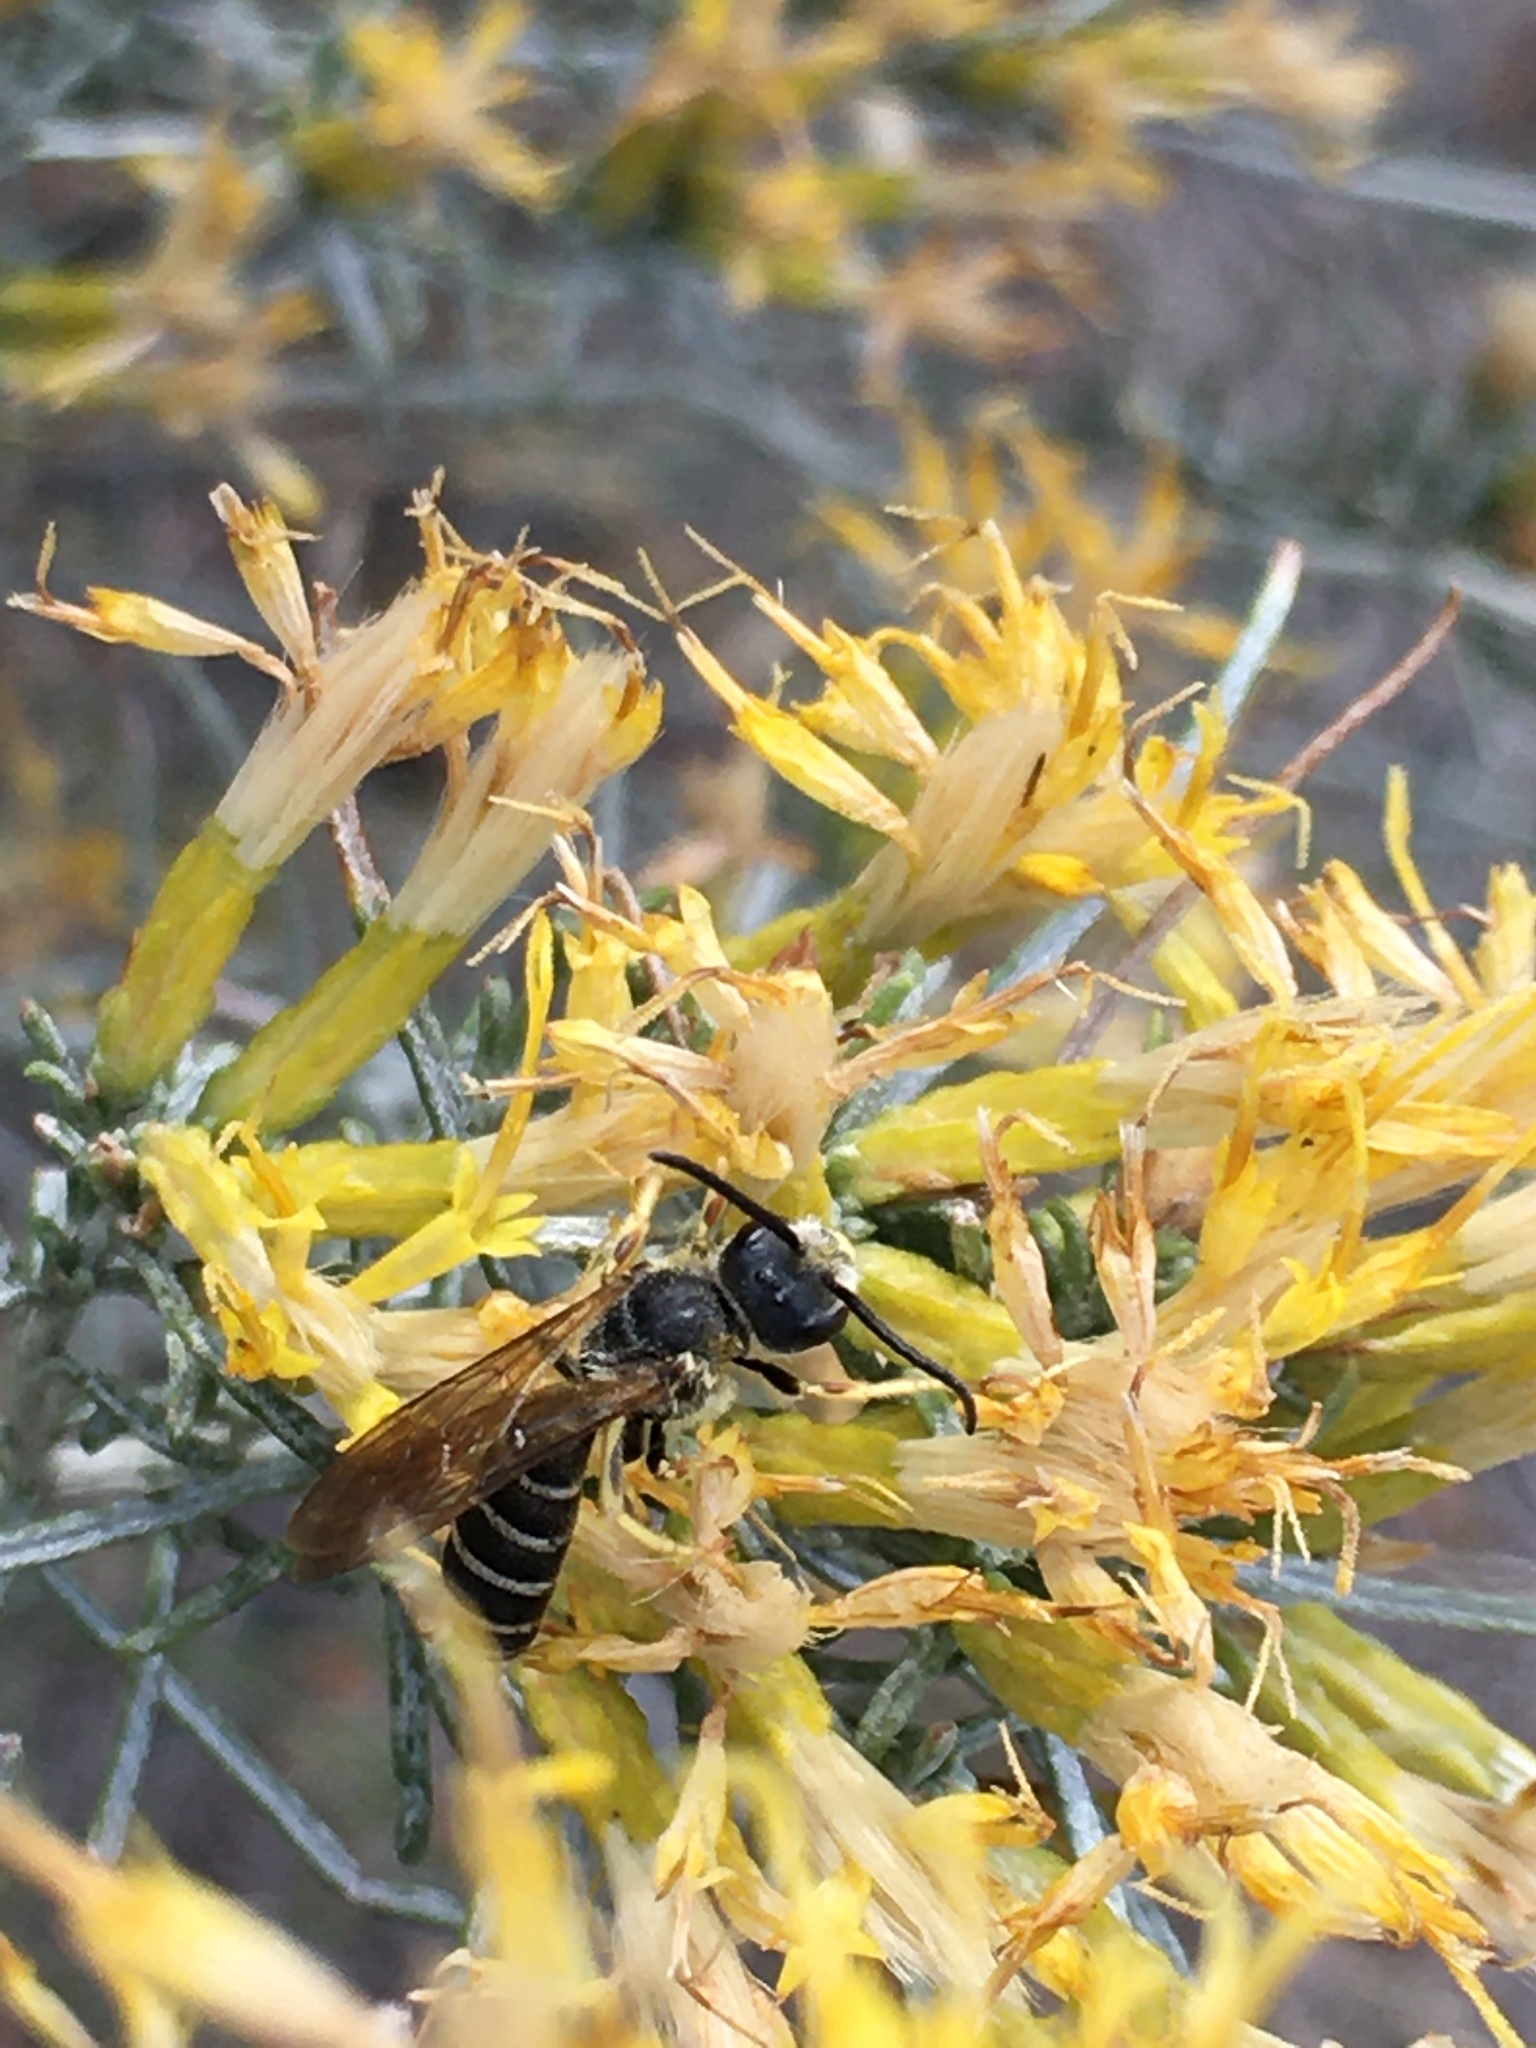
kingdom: Animalia
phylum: Arthropoda
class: Insecta
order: Hymenoptera
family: Halictidae
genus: Halictus
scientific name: Halictus farinosus
